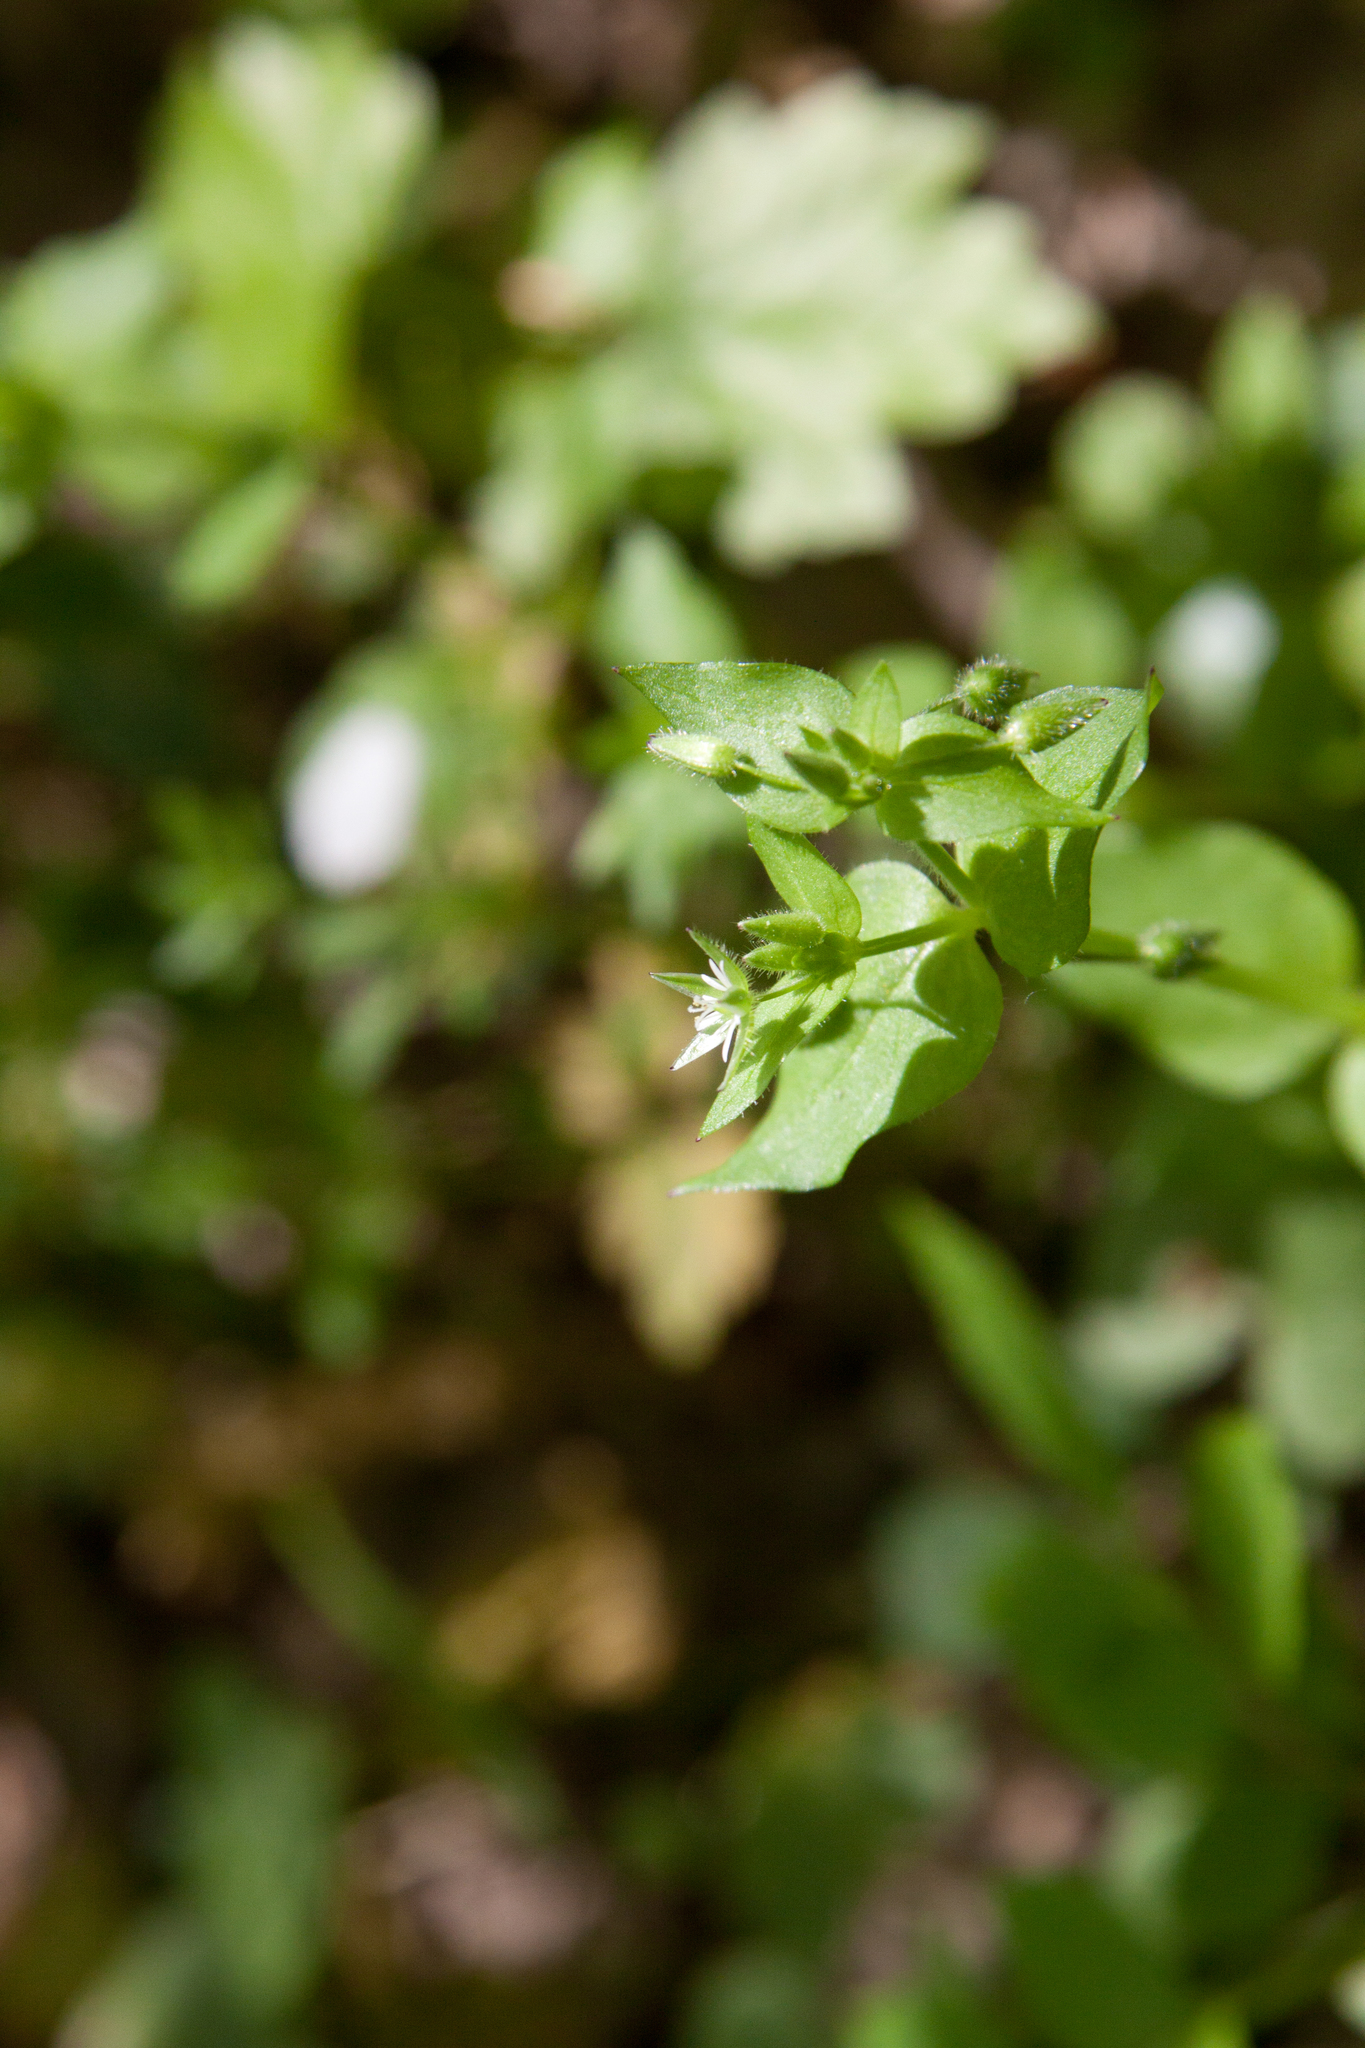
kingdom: Plantae
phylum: Tracheophyta
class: Magnoliopsida
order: Caryophyllales
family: Caryophyllaceae
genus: Stellaria
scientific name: Stellaria media
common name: Common chickweed
